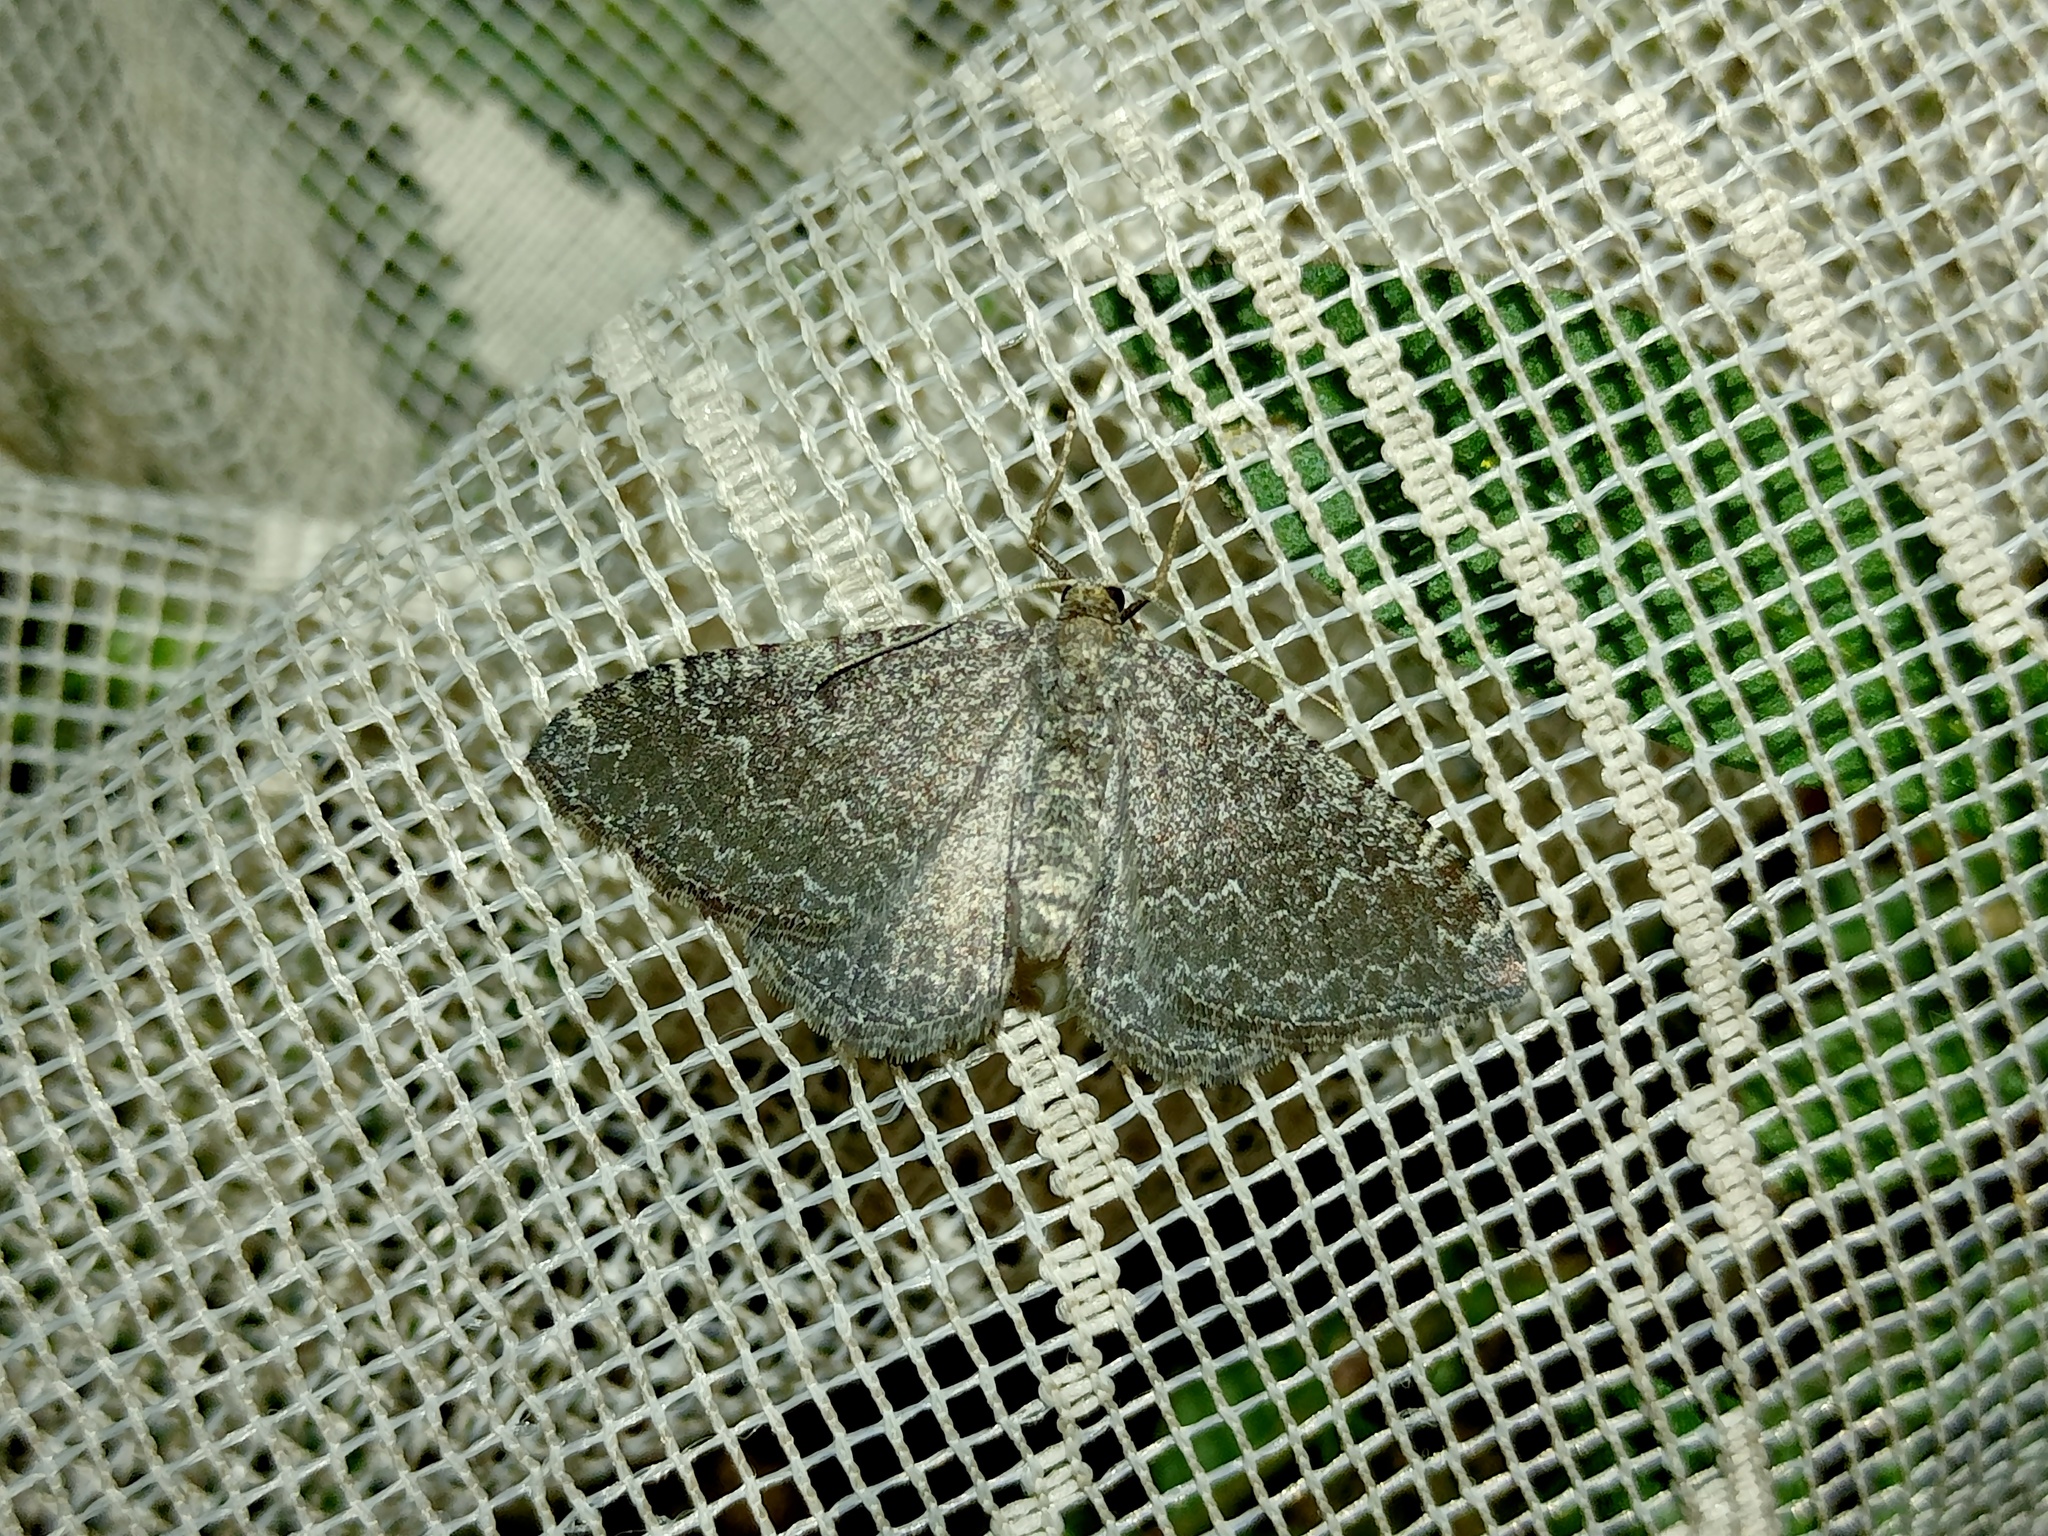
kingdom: Animalia
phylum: Arthropoda
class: Insecta
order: Lepidoptera
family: Geometridae
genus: Cataclysme
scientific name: Cataclysme riguata
